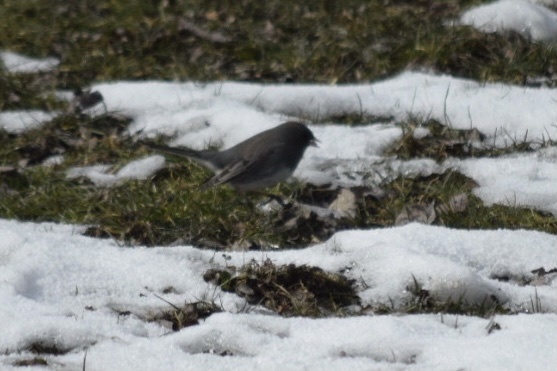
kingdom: Animalia
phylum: Chordata
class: Aves
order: Passeriformes
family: Passerellidae
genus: Junco
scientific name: Junco hyemalis
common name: Dark-eyed junco
